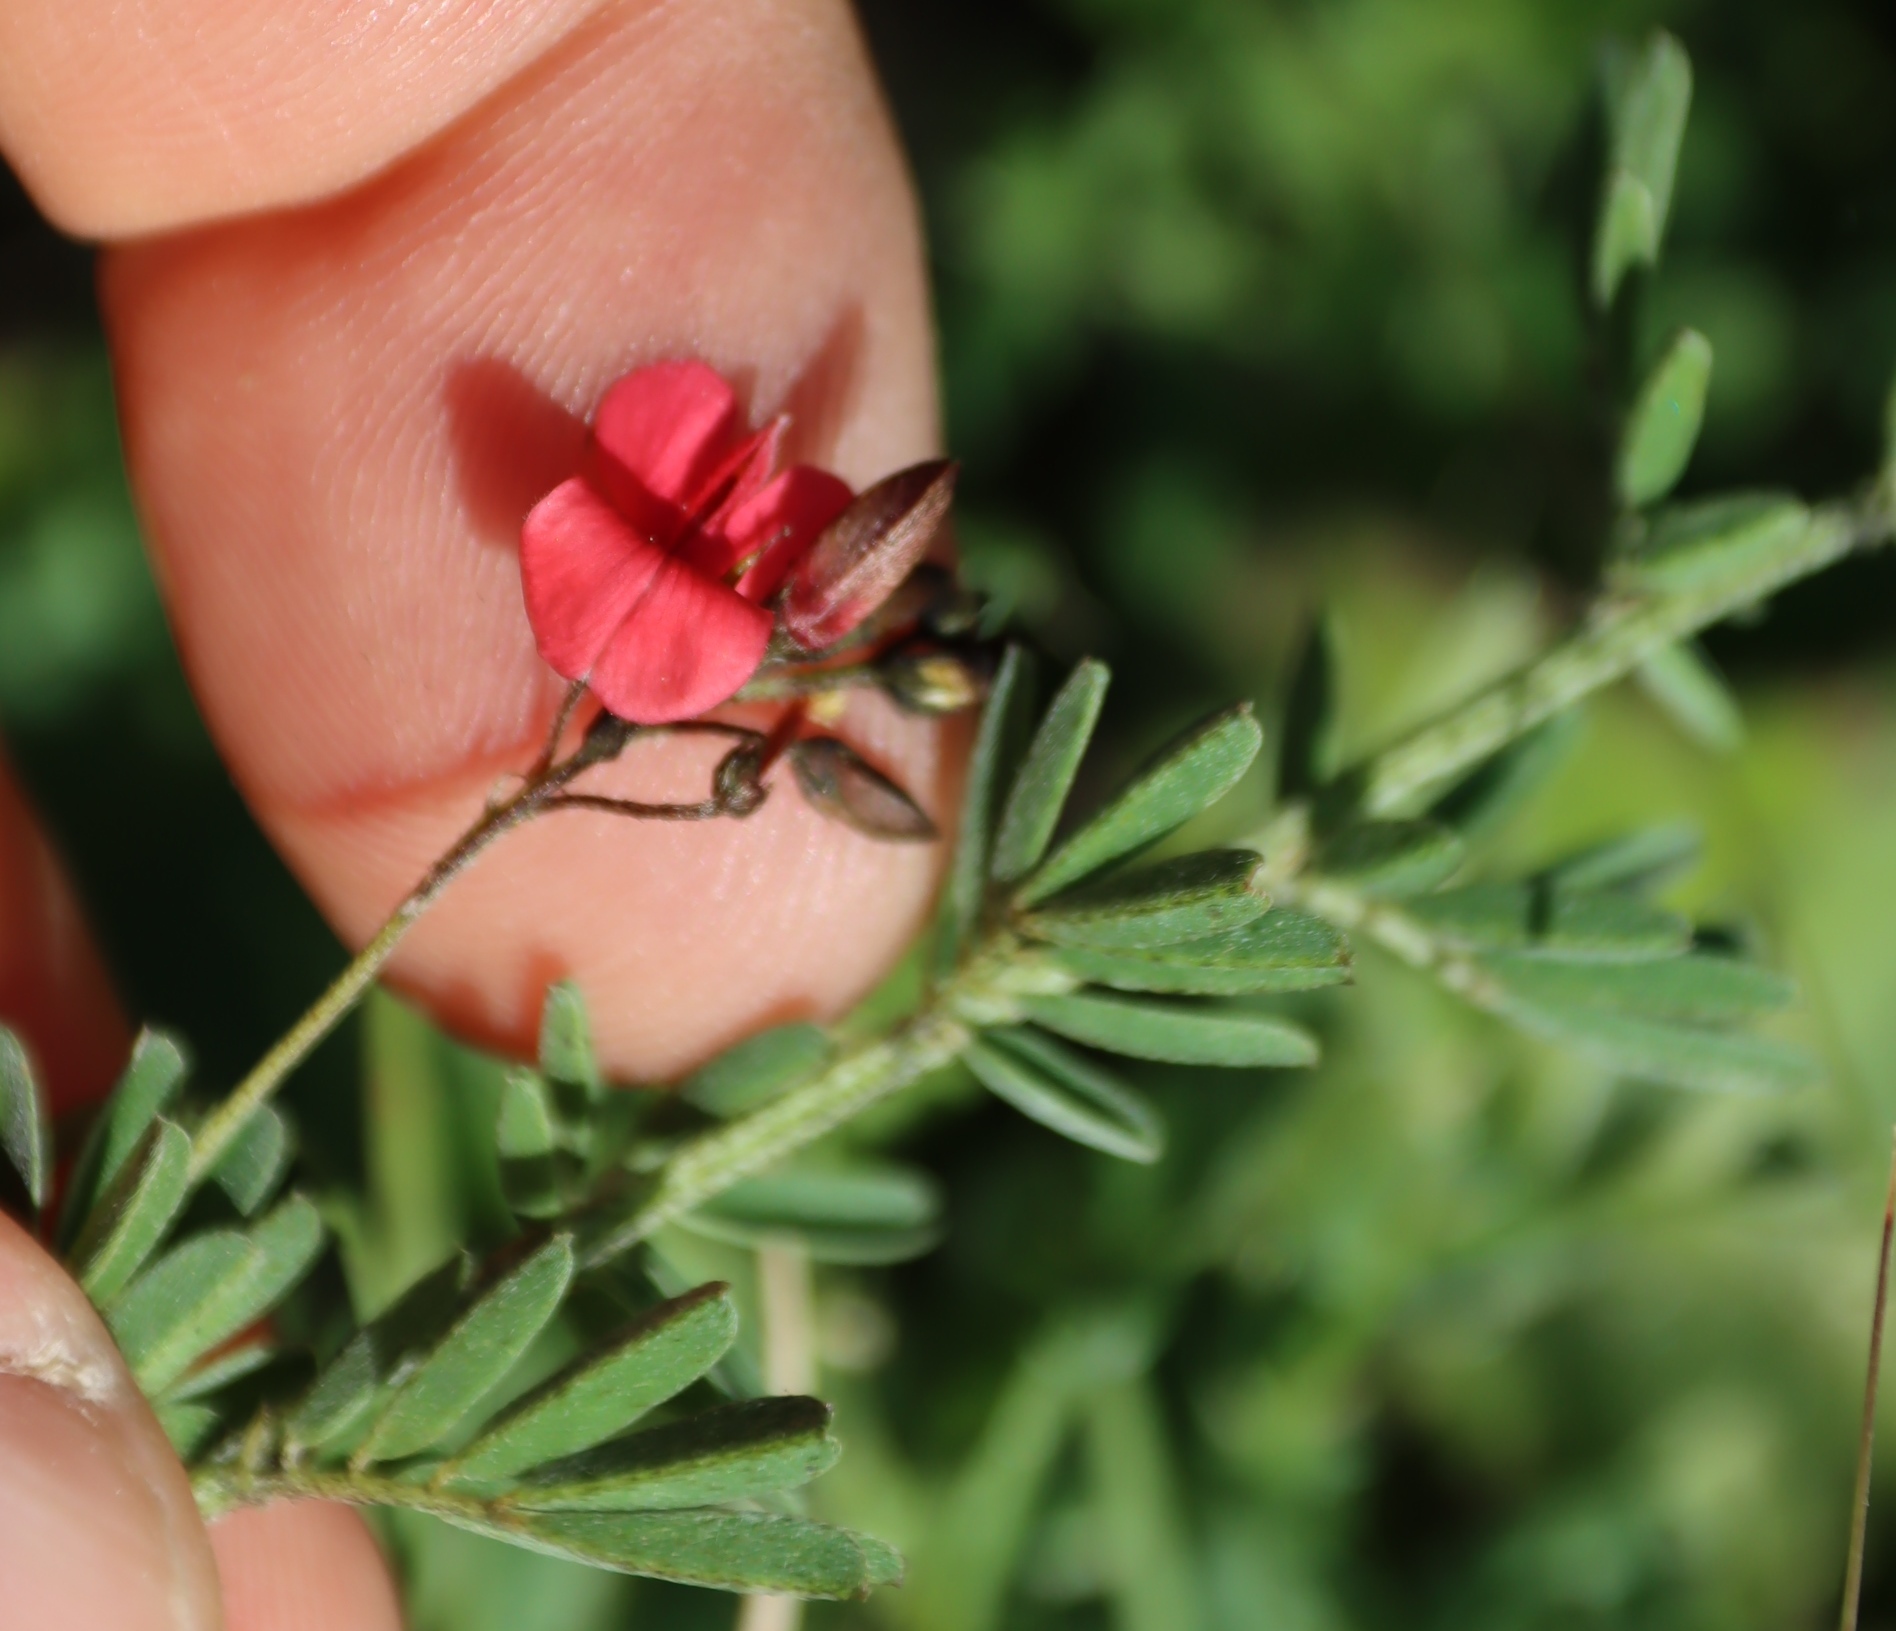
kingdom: Plantae
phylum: Tracheophyta
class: Magnoliopsida
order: Fabales
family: Fabaceae
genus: Indigofera
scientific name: Indigofera verrucosa
